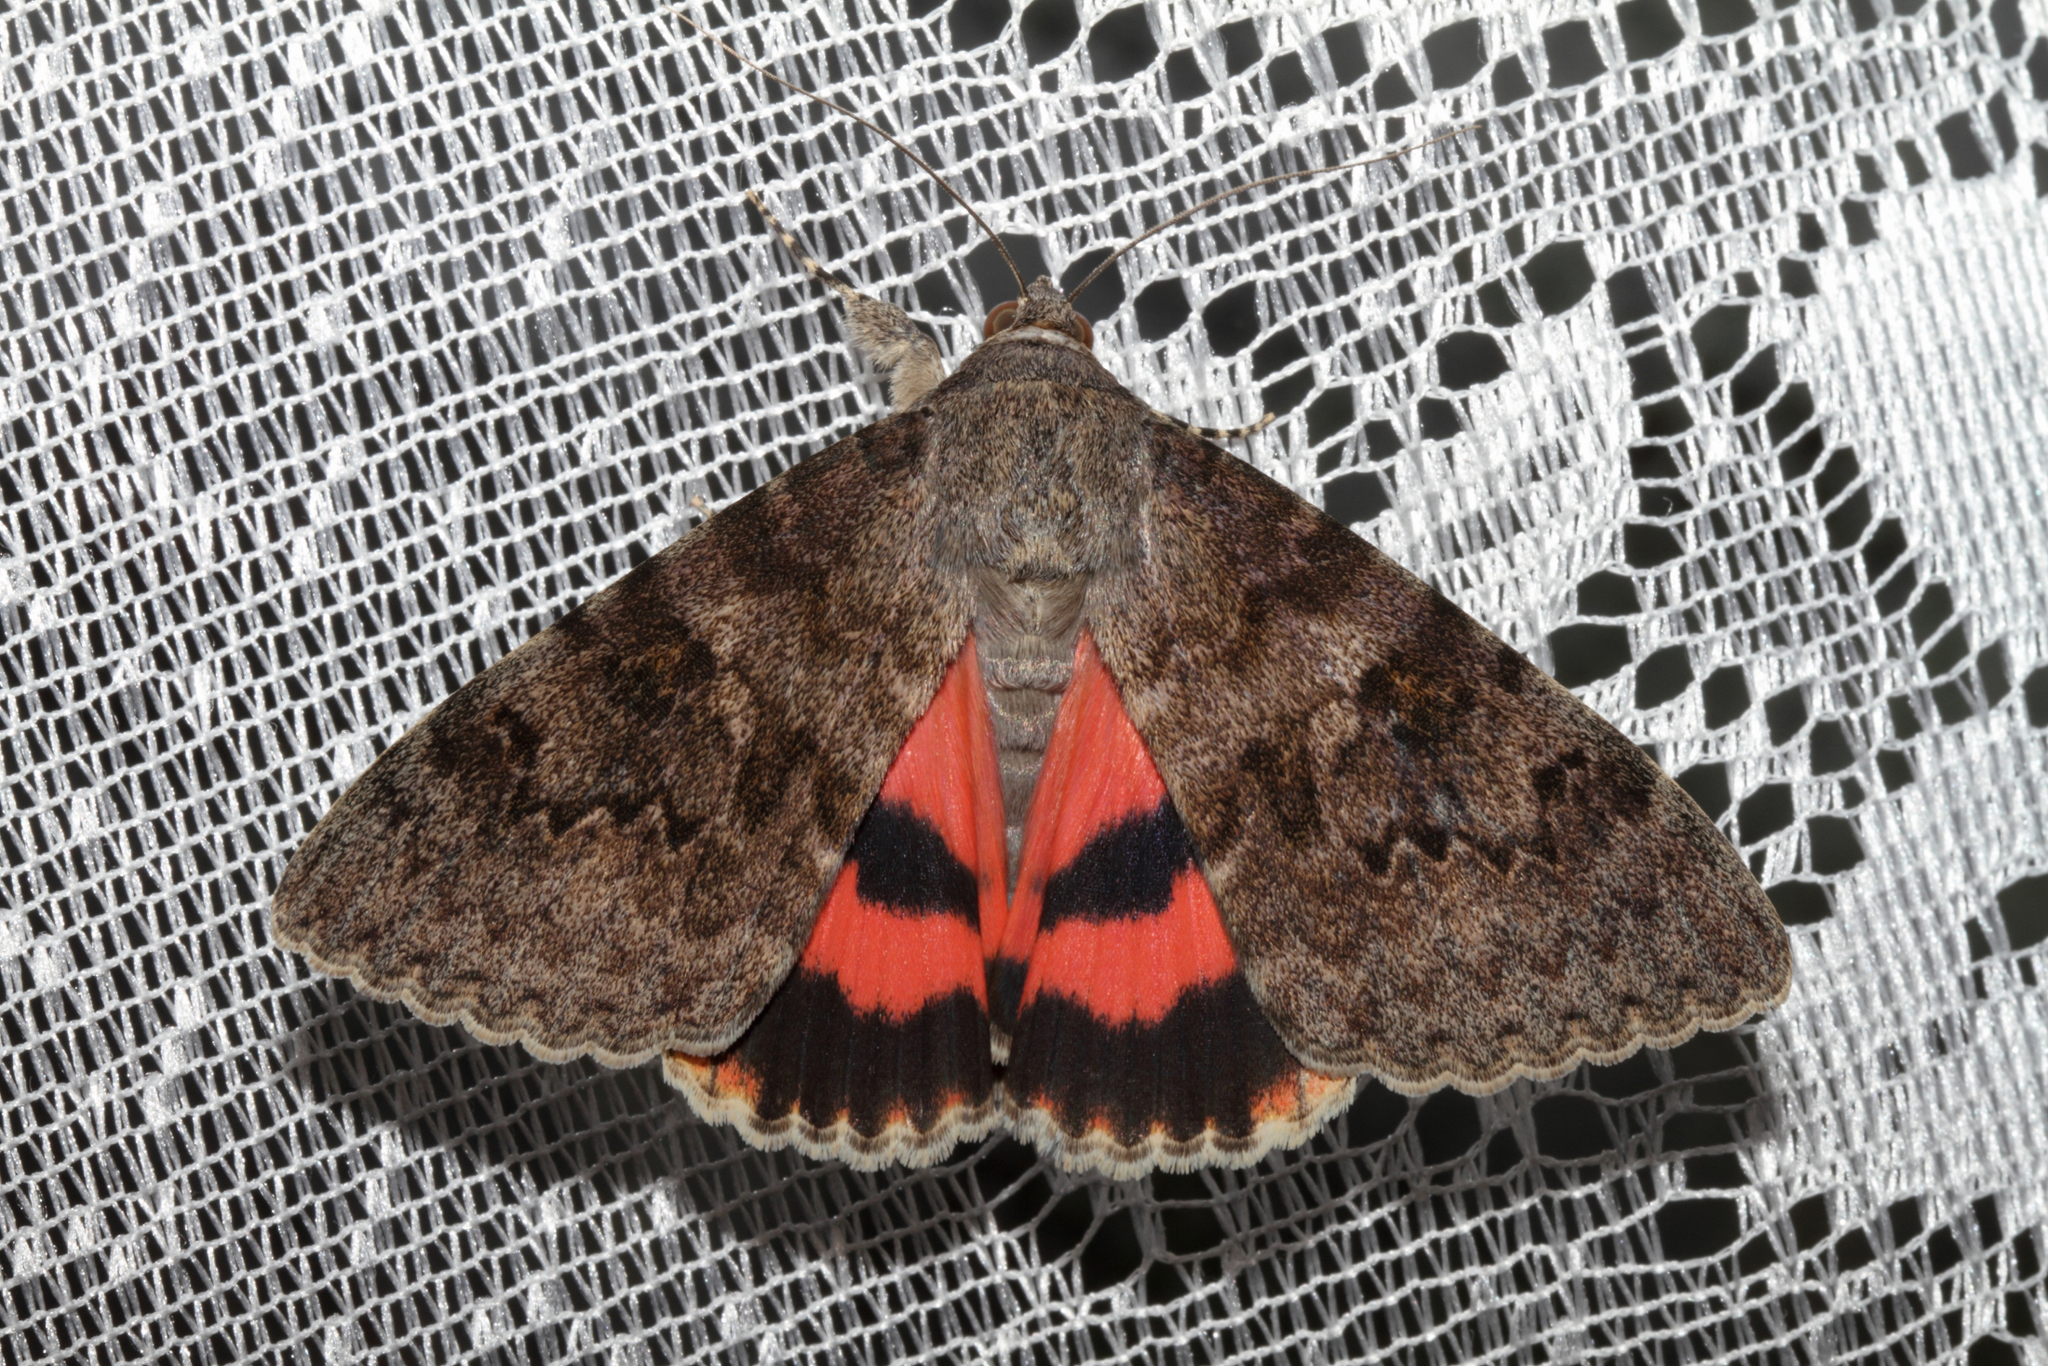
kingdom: Animalia
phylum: Arthropoda
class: Insecta
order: Lepidoptera
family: Erebidae
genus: Catocala
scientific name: Catocala elocata
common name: French red underwing
